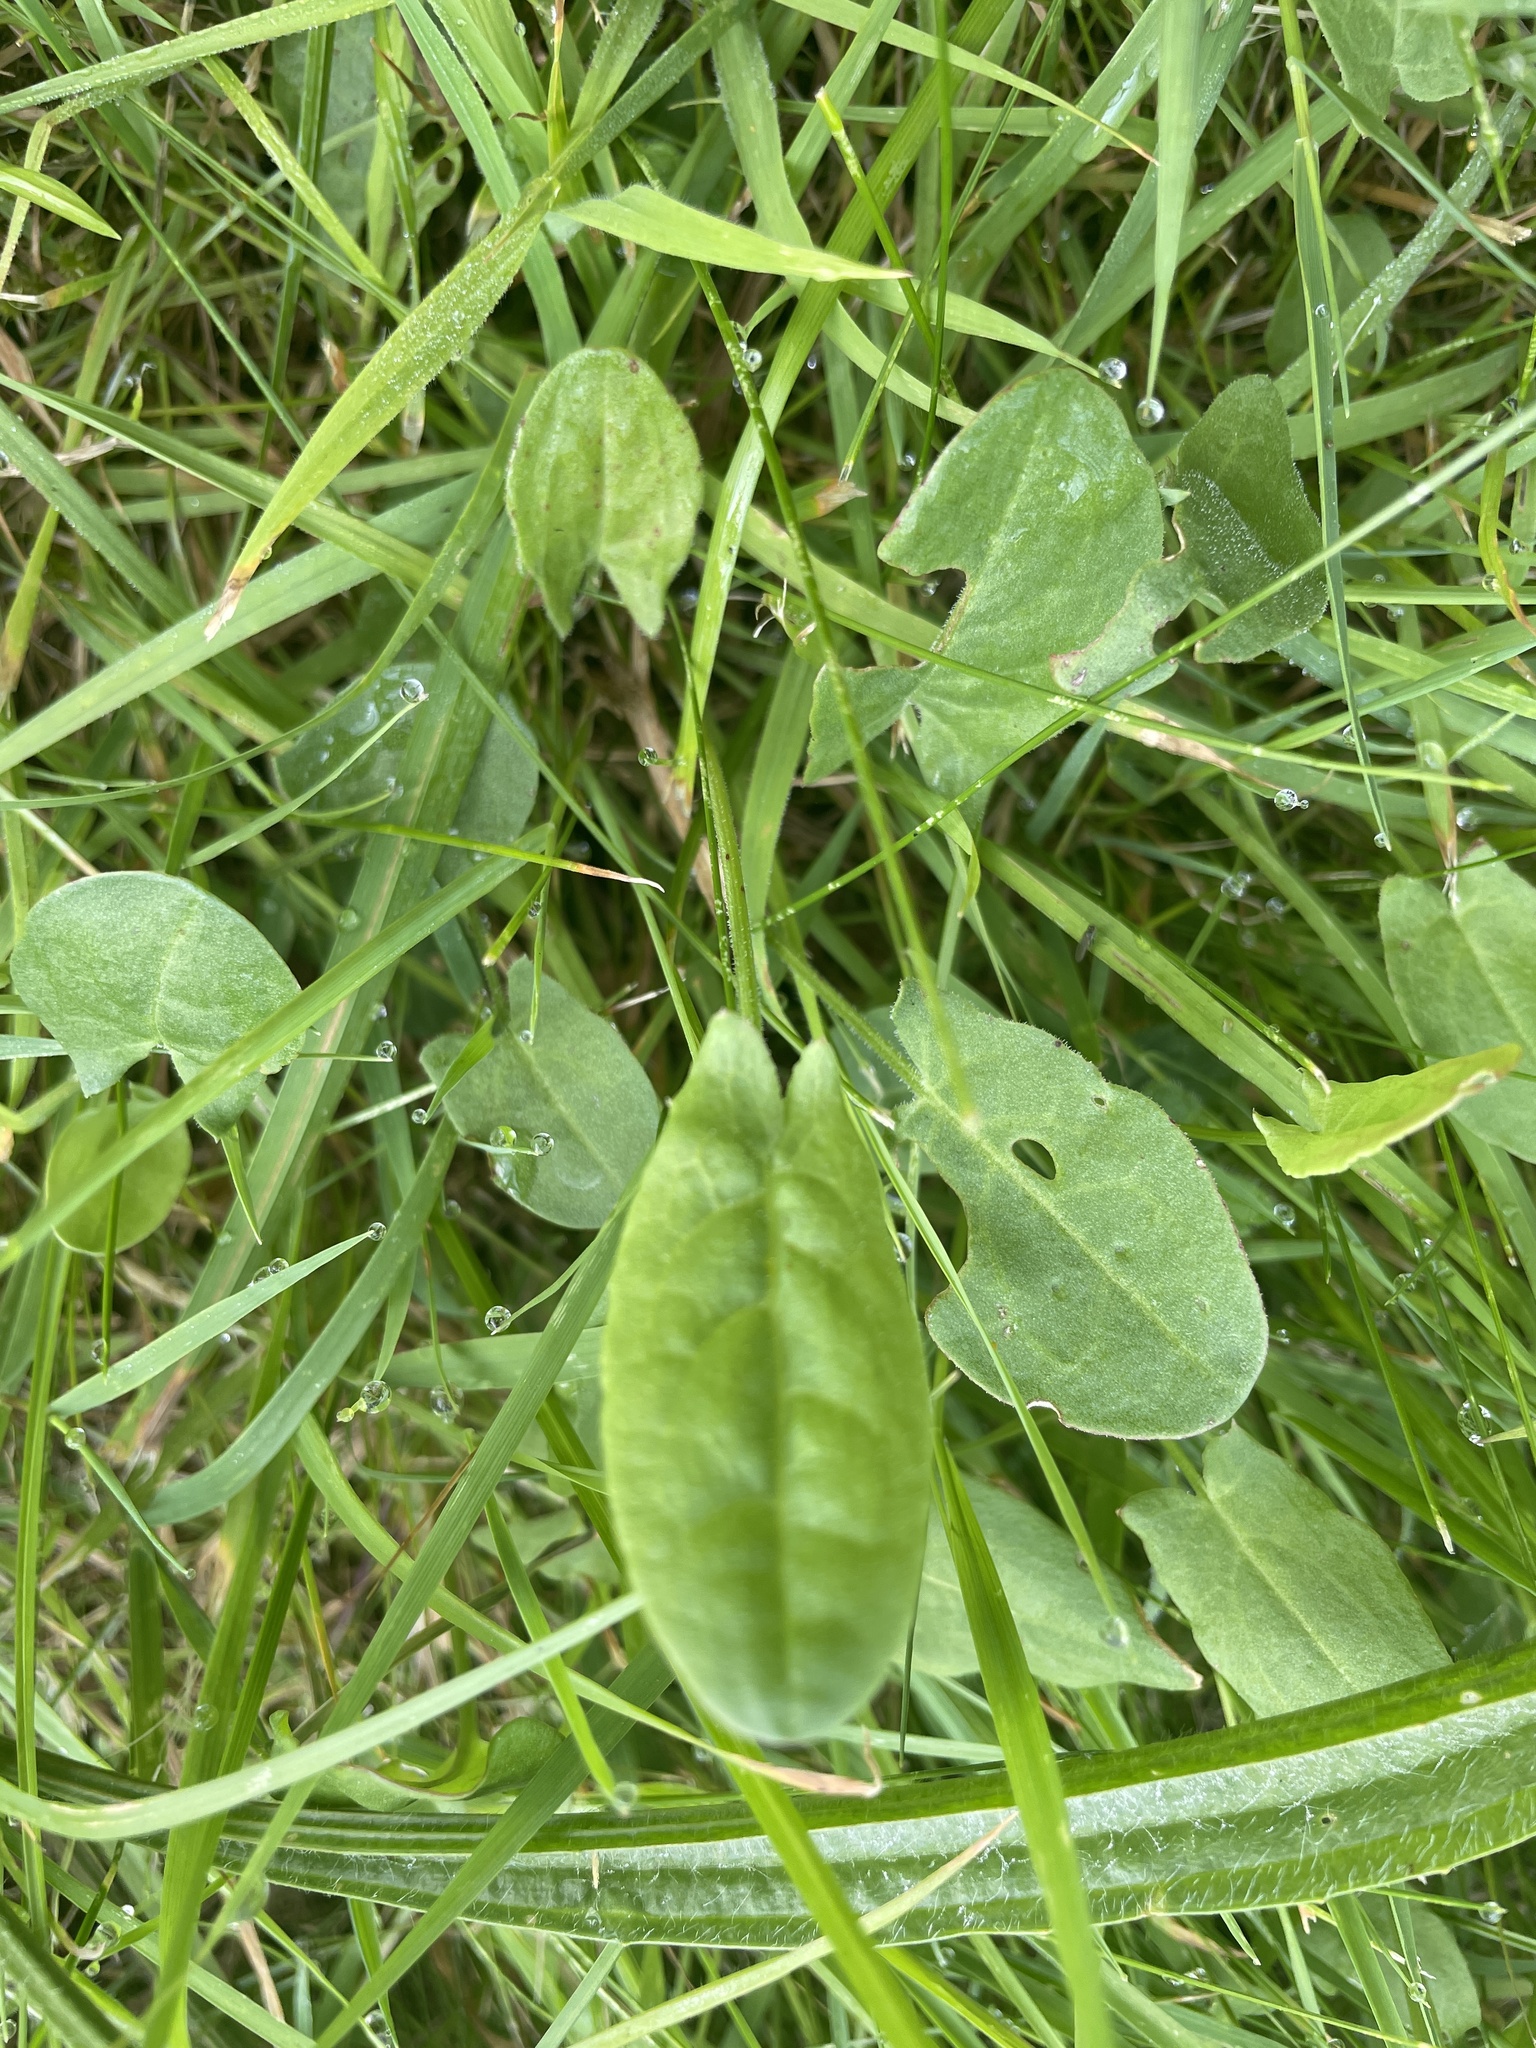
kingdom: Plantae
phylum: Tracheophyta
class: Magnoliopsida
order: Caryophyllales
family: Polygonaceae
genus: Rumex
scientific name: Rumex acetosa
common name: Garden sorrel
